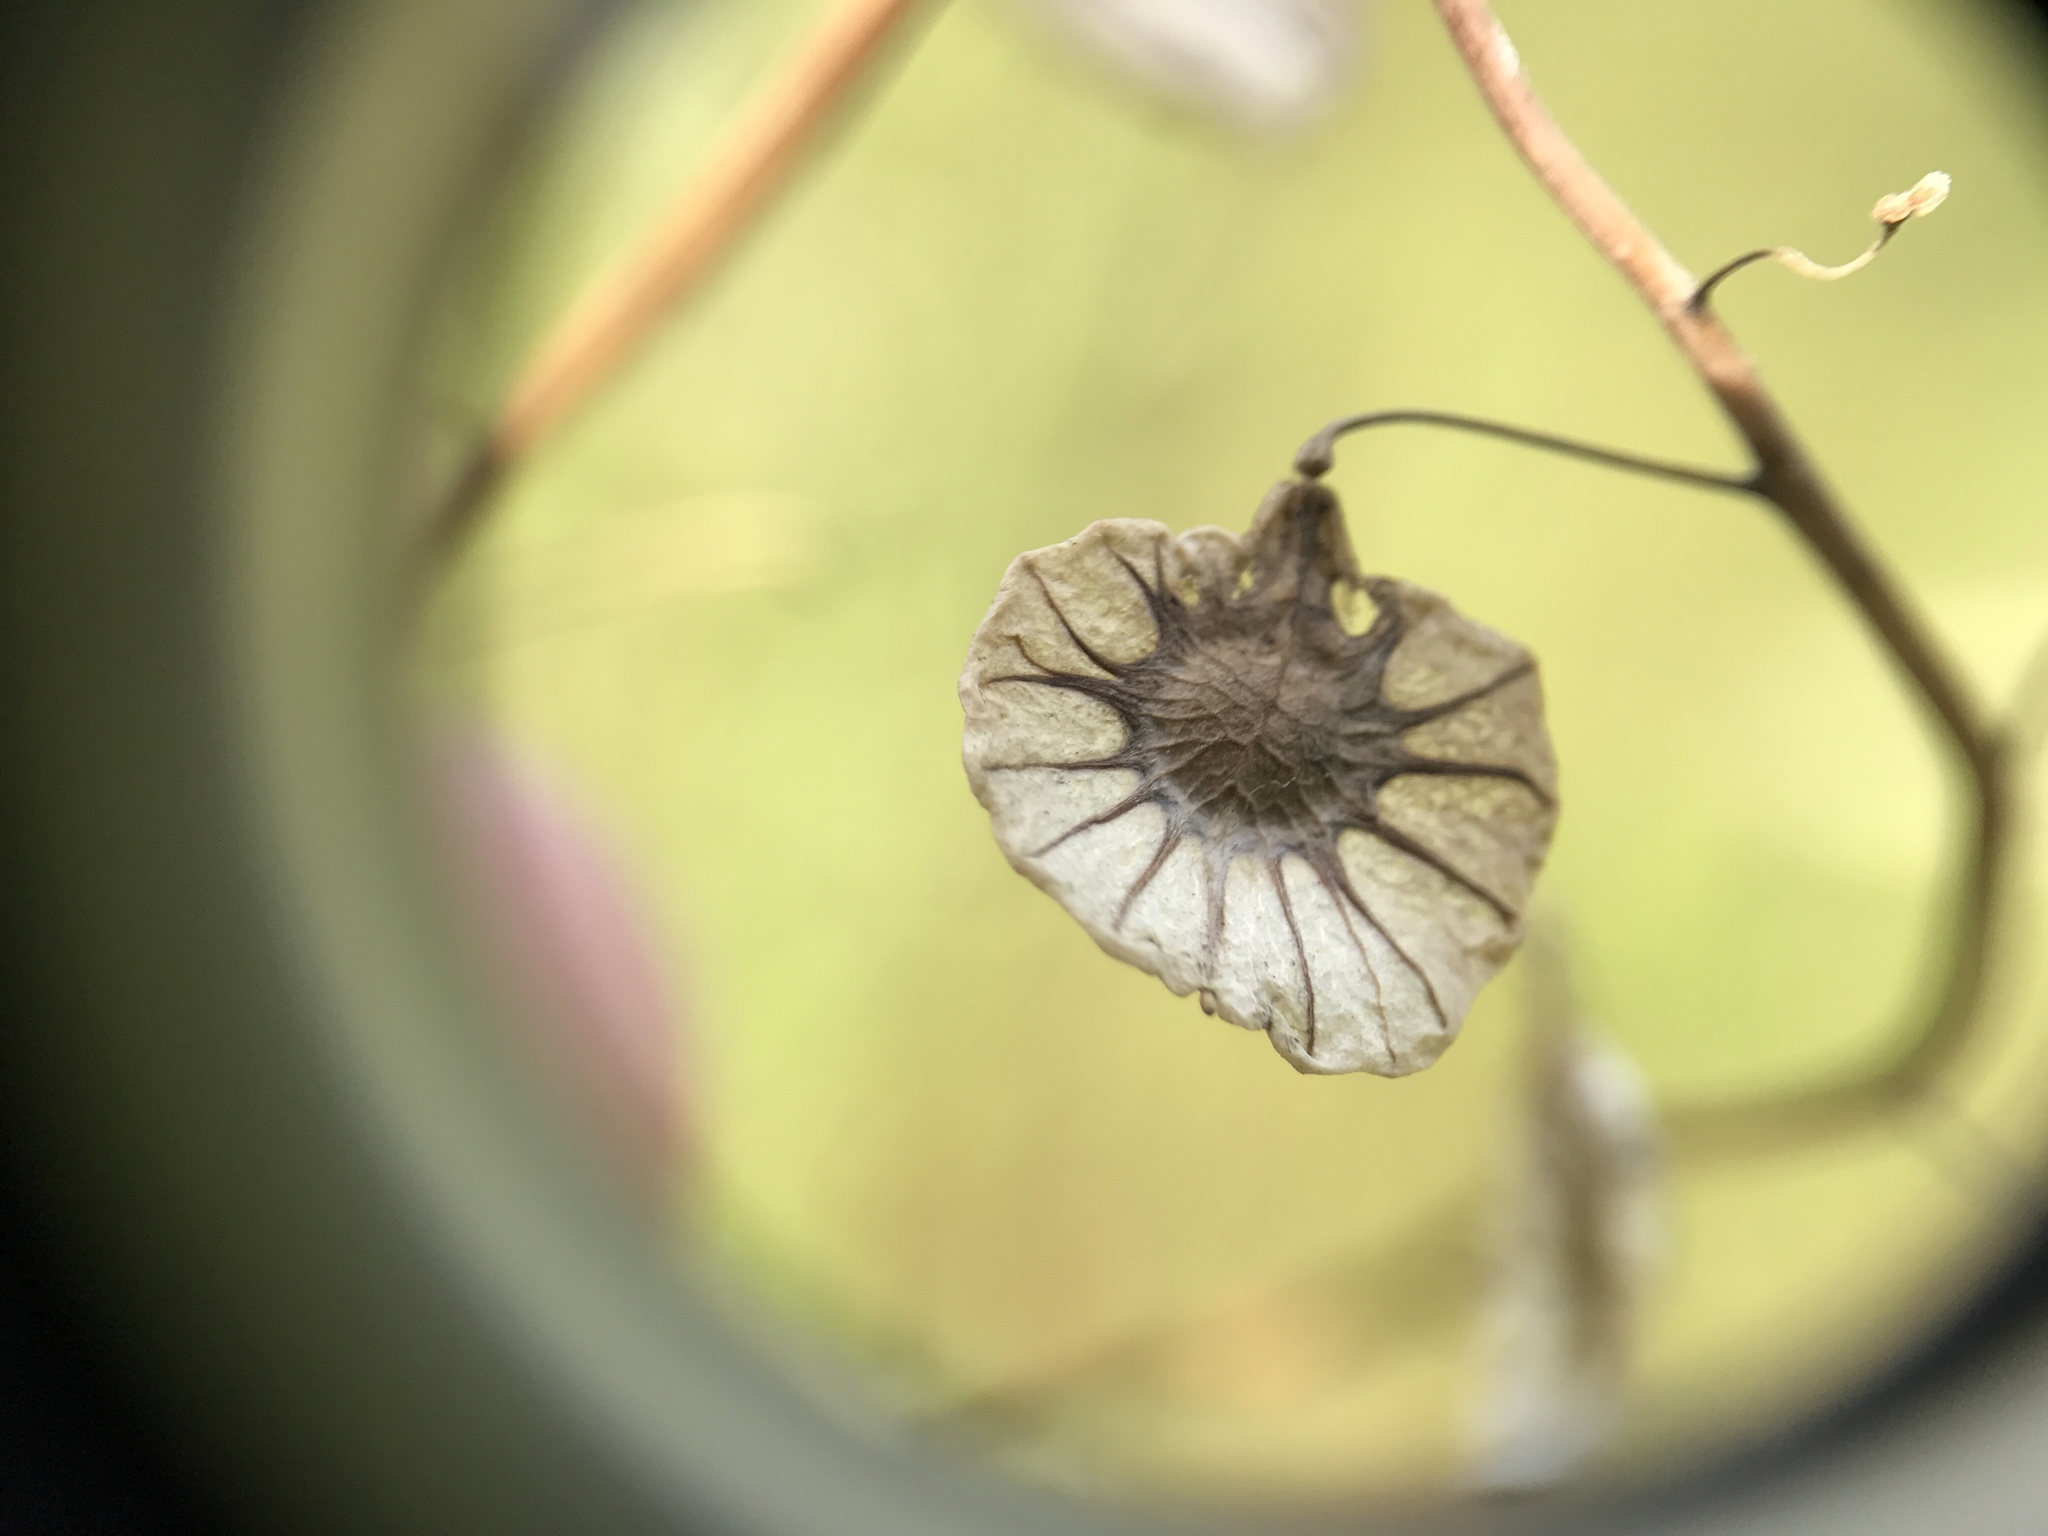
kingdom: Plantae
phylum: Tracheophyta
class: Magnoliopsida
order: Brassicales
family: Brassicaceae
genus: Thysanocarpus
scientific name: Thysanocarpus radians
